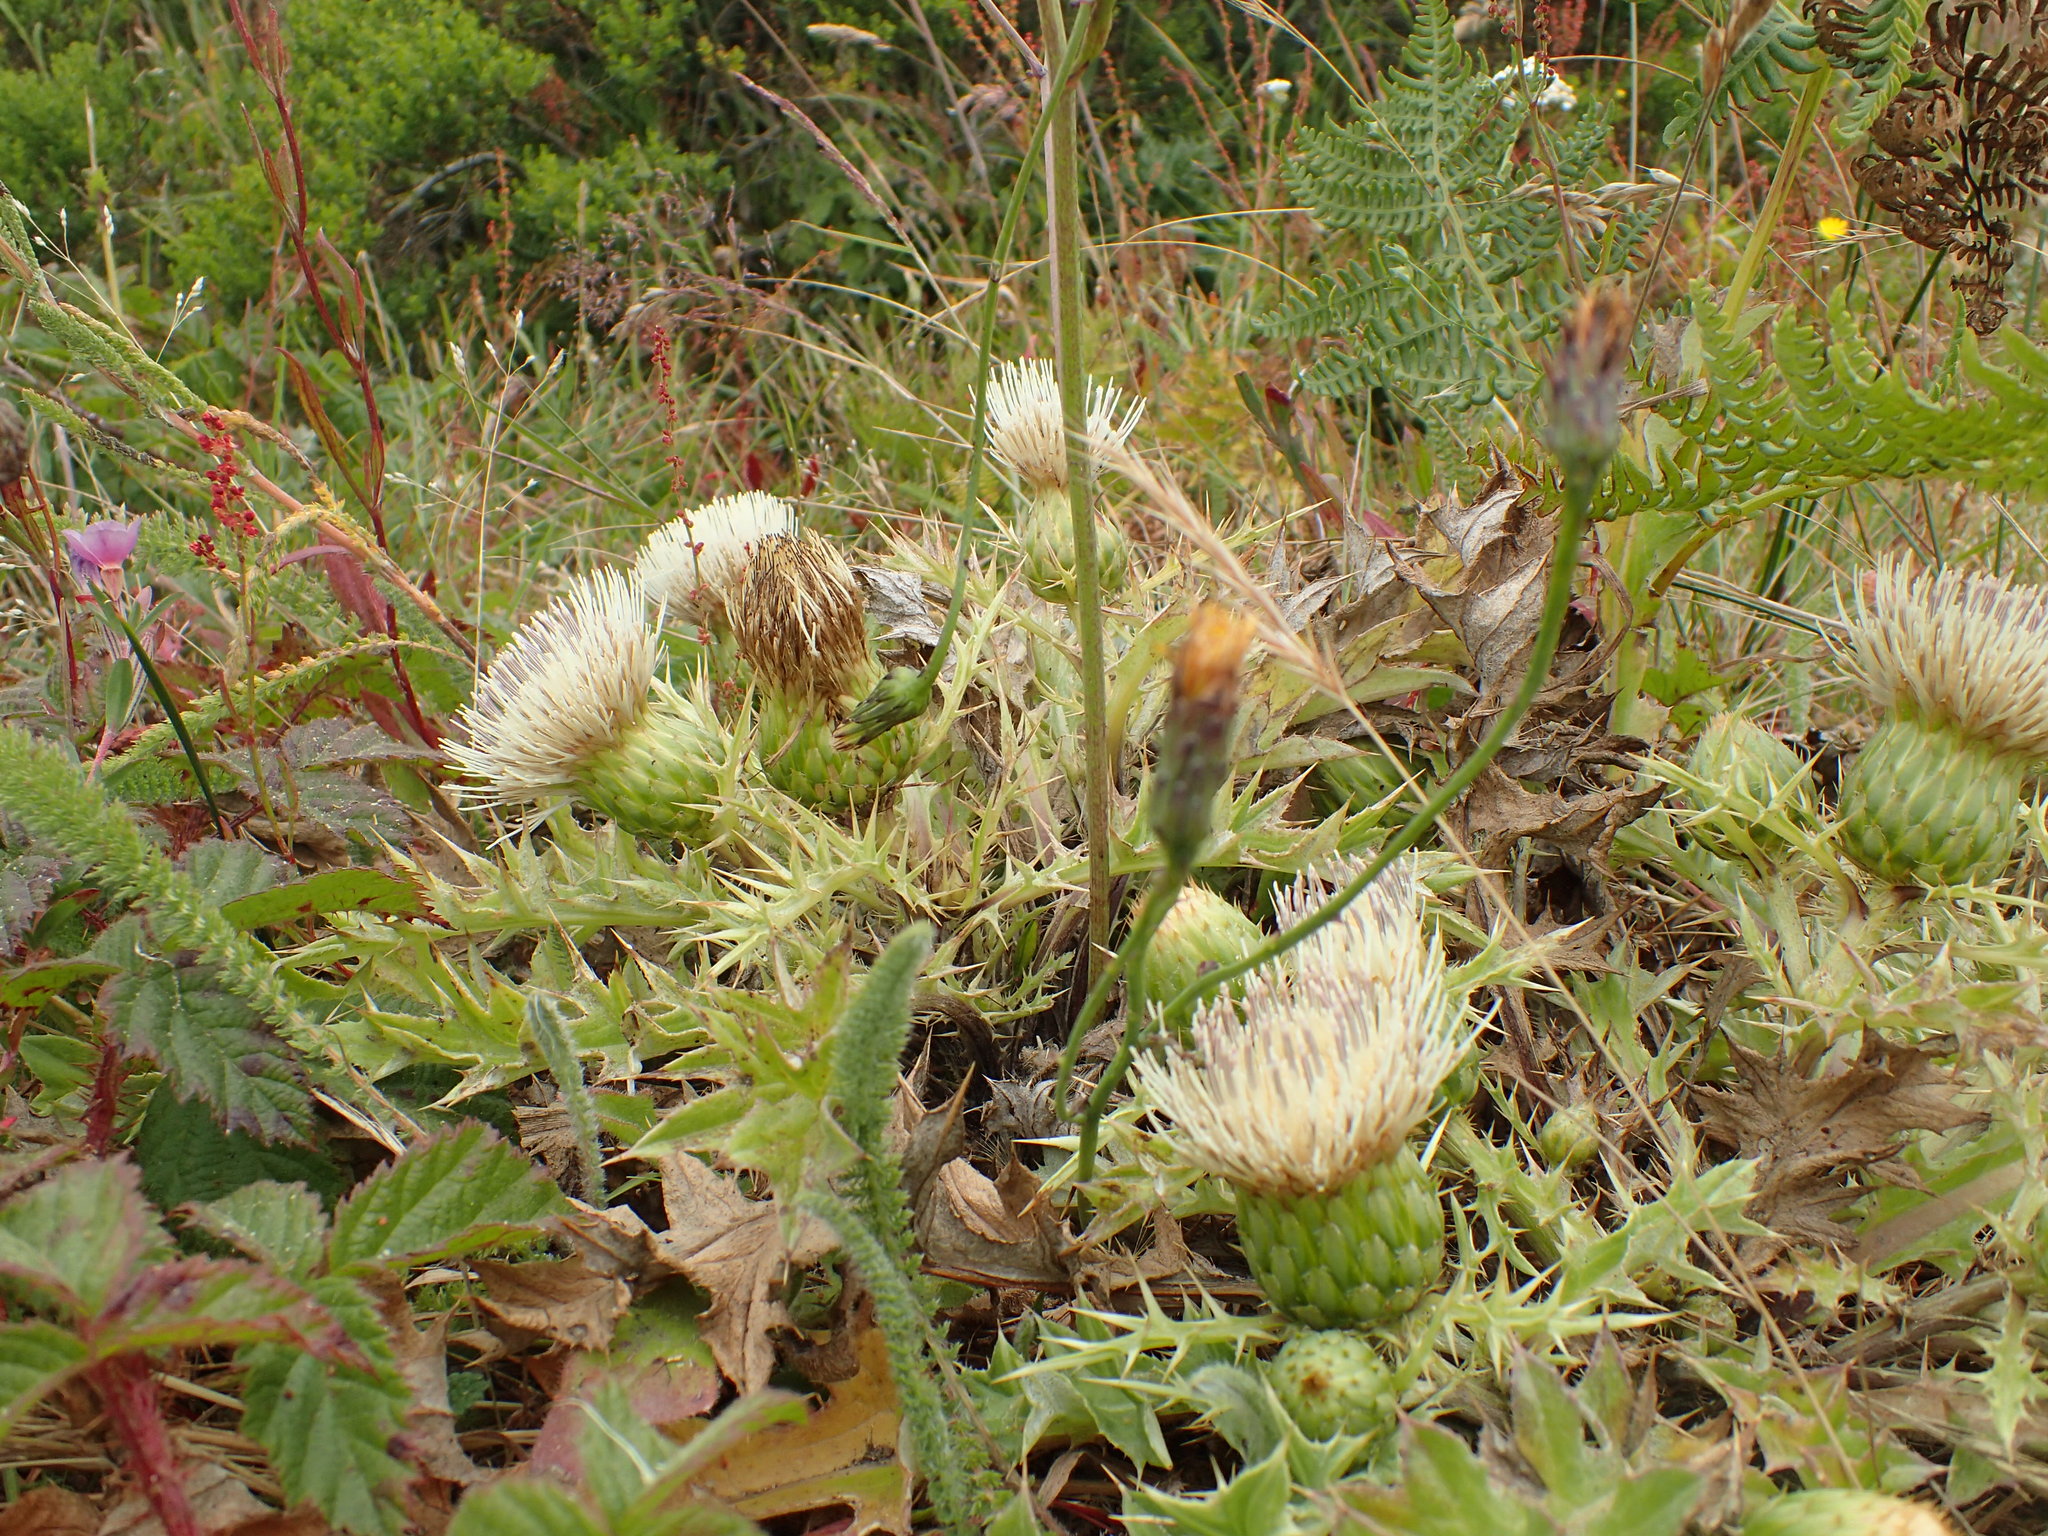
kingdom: Plantae
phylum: Tracheophyta
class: Magnoliopsida
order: Asterales
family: Asteraceae
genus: Cirsium
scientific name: Cirsium quercetorum
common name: Alameda county thistle
